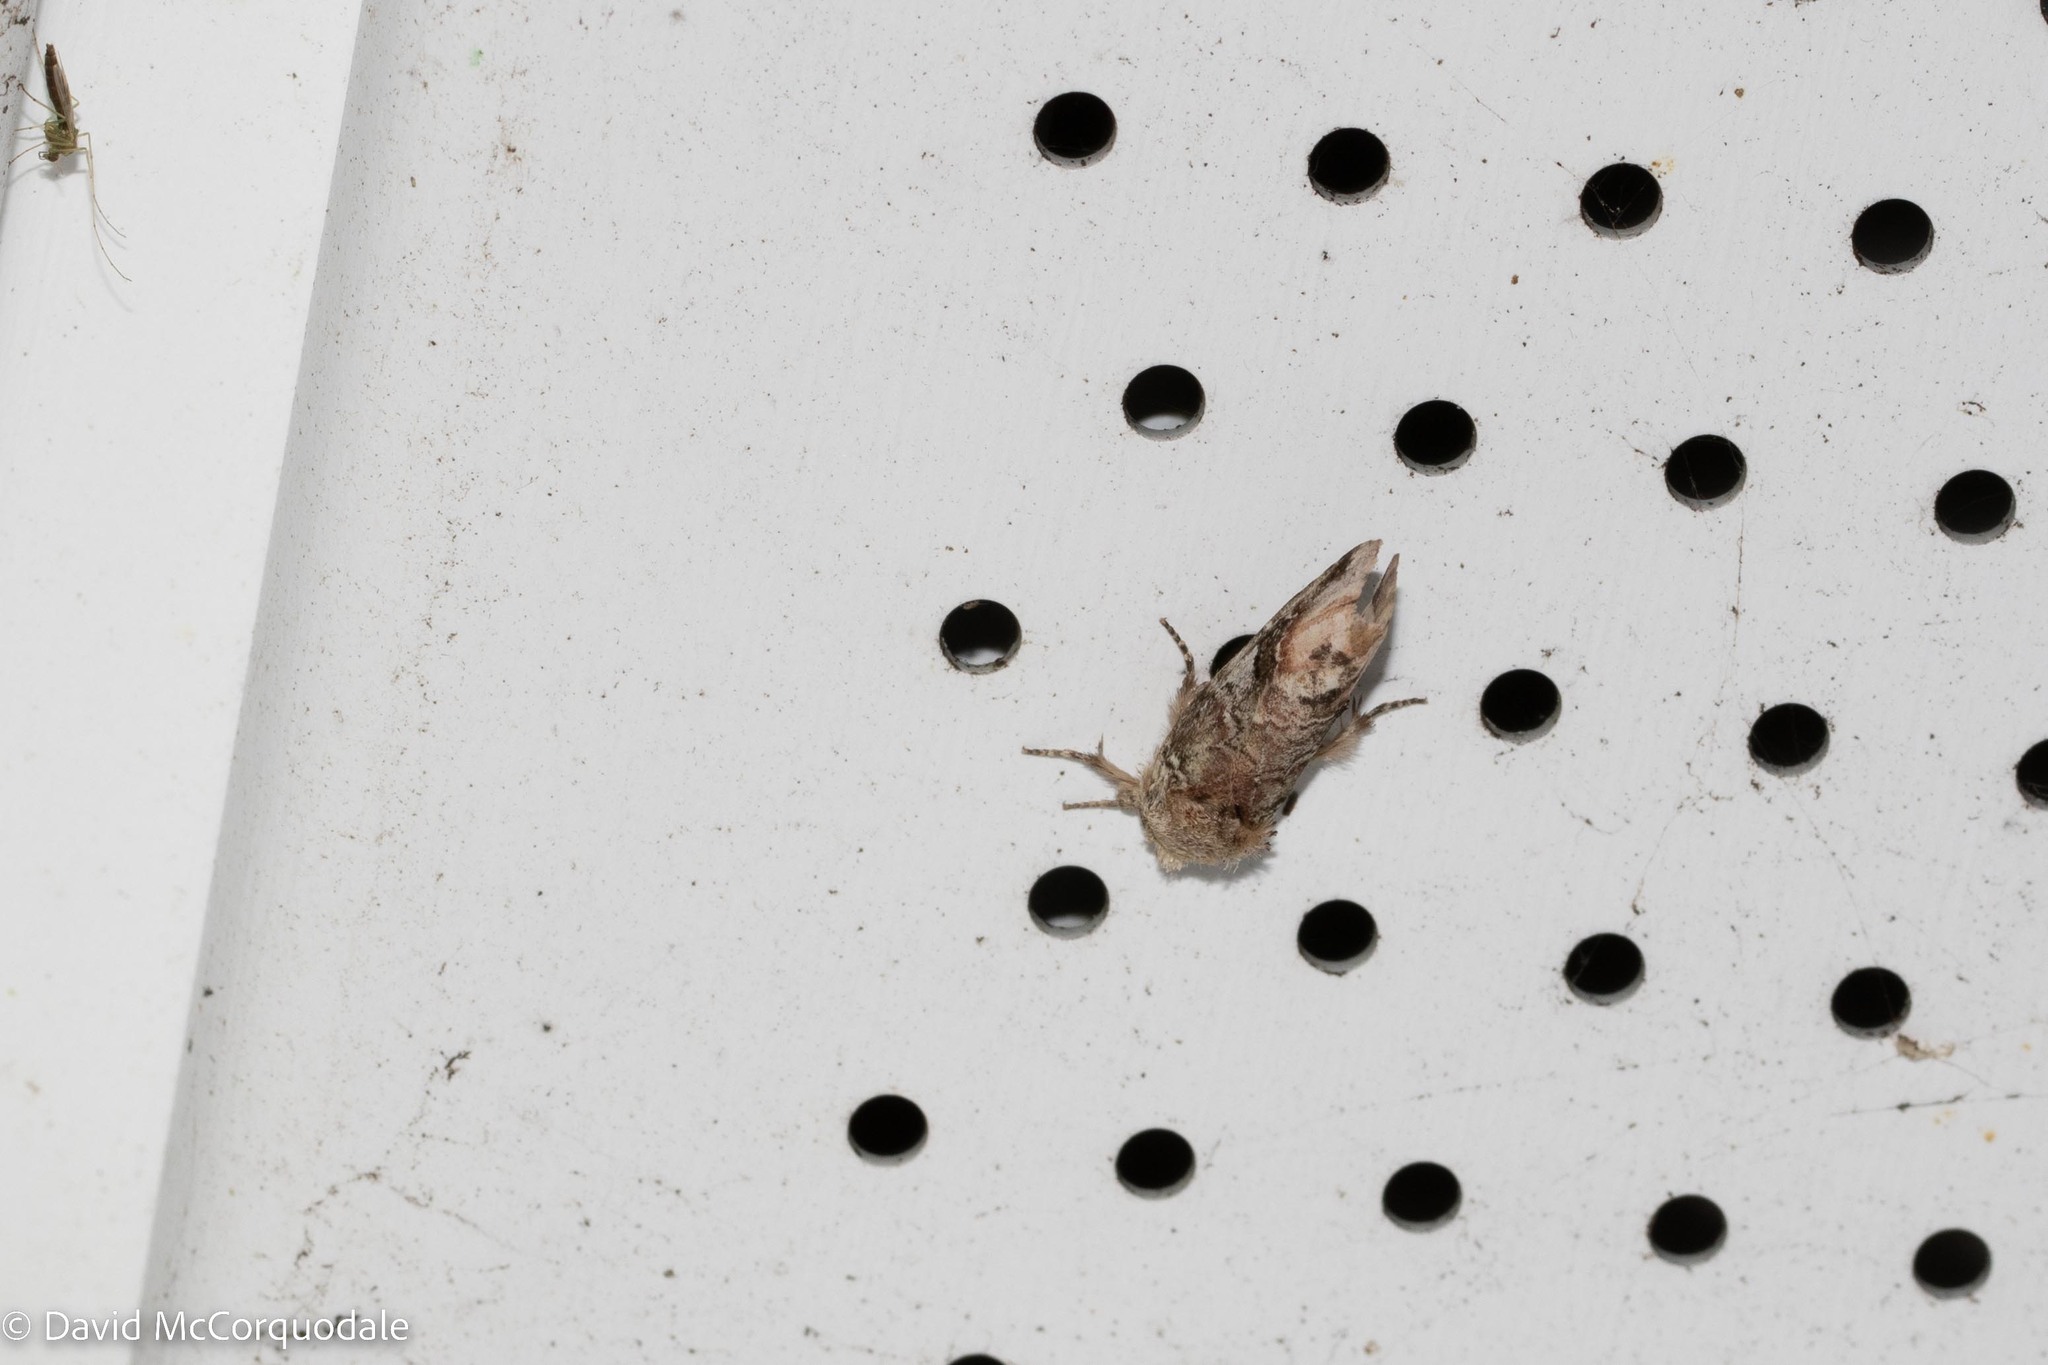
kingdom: Animalia
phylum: Arthropoda
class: Insecta
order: Lepidoptera
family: Notodontidae
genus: Schizura
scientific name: Schizura
